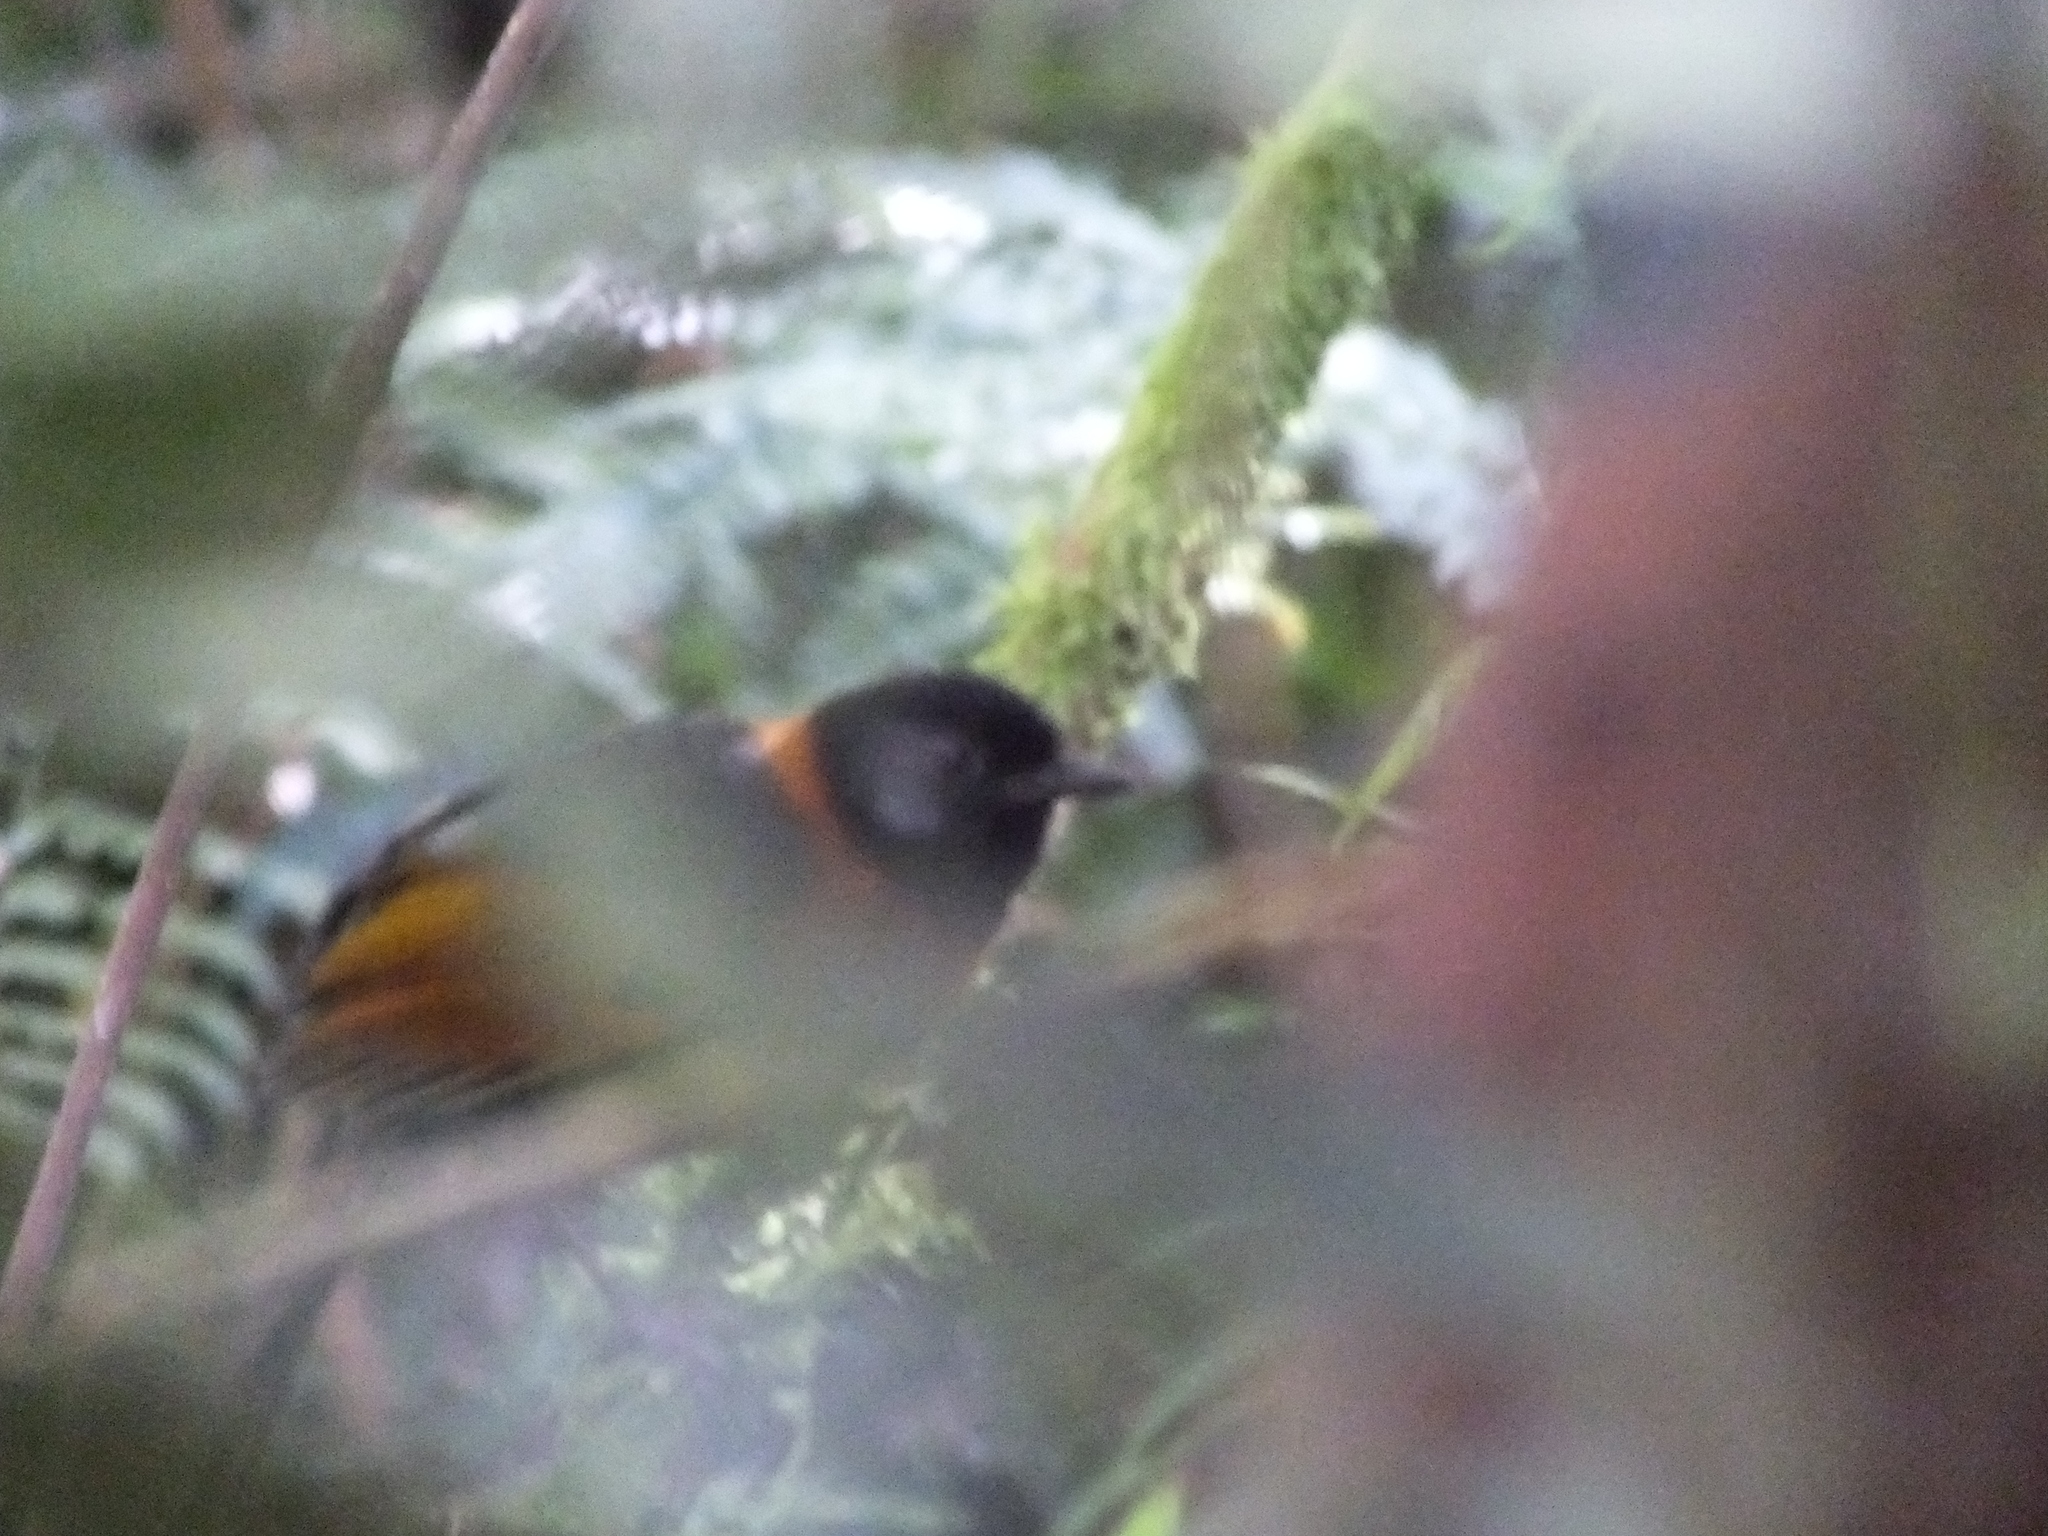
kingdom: Animalia
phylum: Chordata
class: Aves
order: Passeriformes
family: Leiothrichidae
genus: Trochalopteron
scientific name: Trochalopteron yersini
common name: Collared laughingthrush
